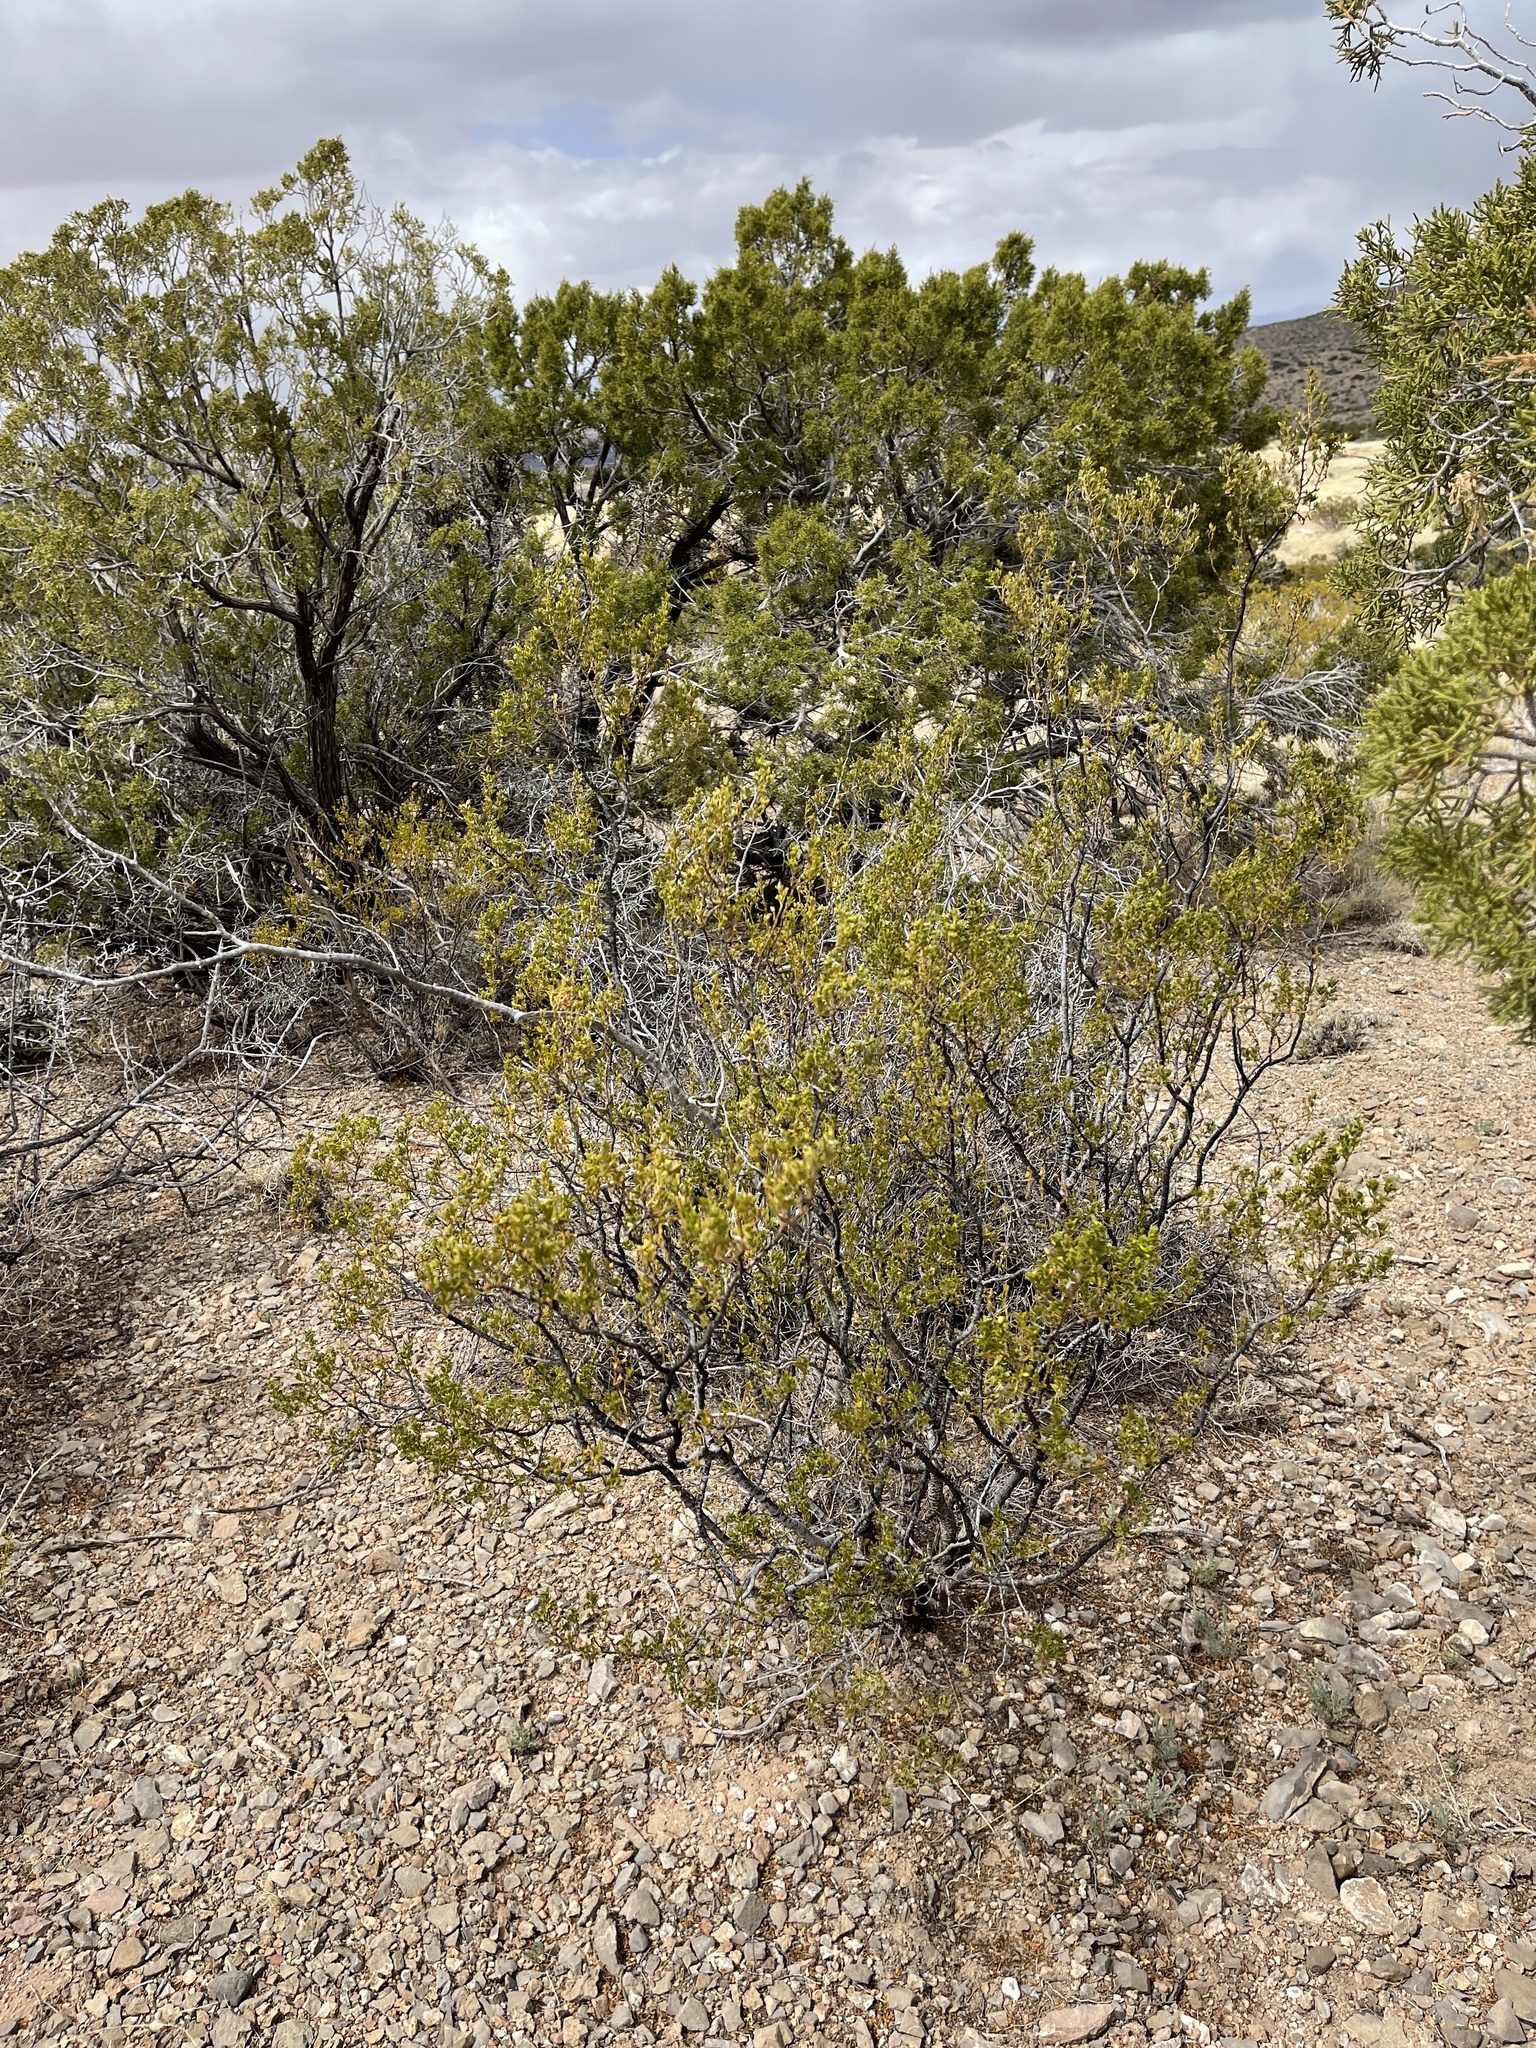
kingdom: Plantae
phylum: Tracheophyta
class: Magnoliopsida
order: Zygophyllales
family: Zygophyllaceae
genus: Larrea
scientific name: Larrea tridentata
